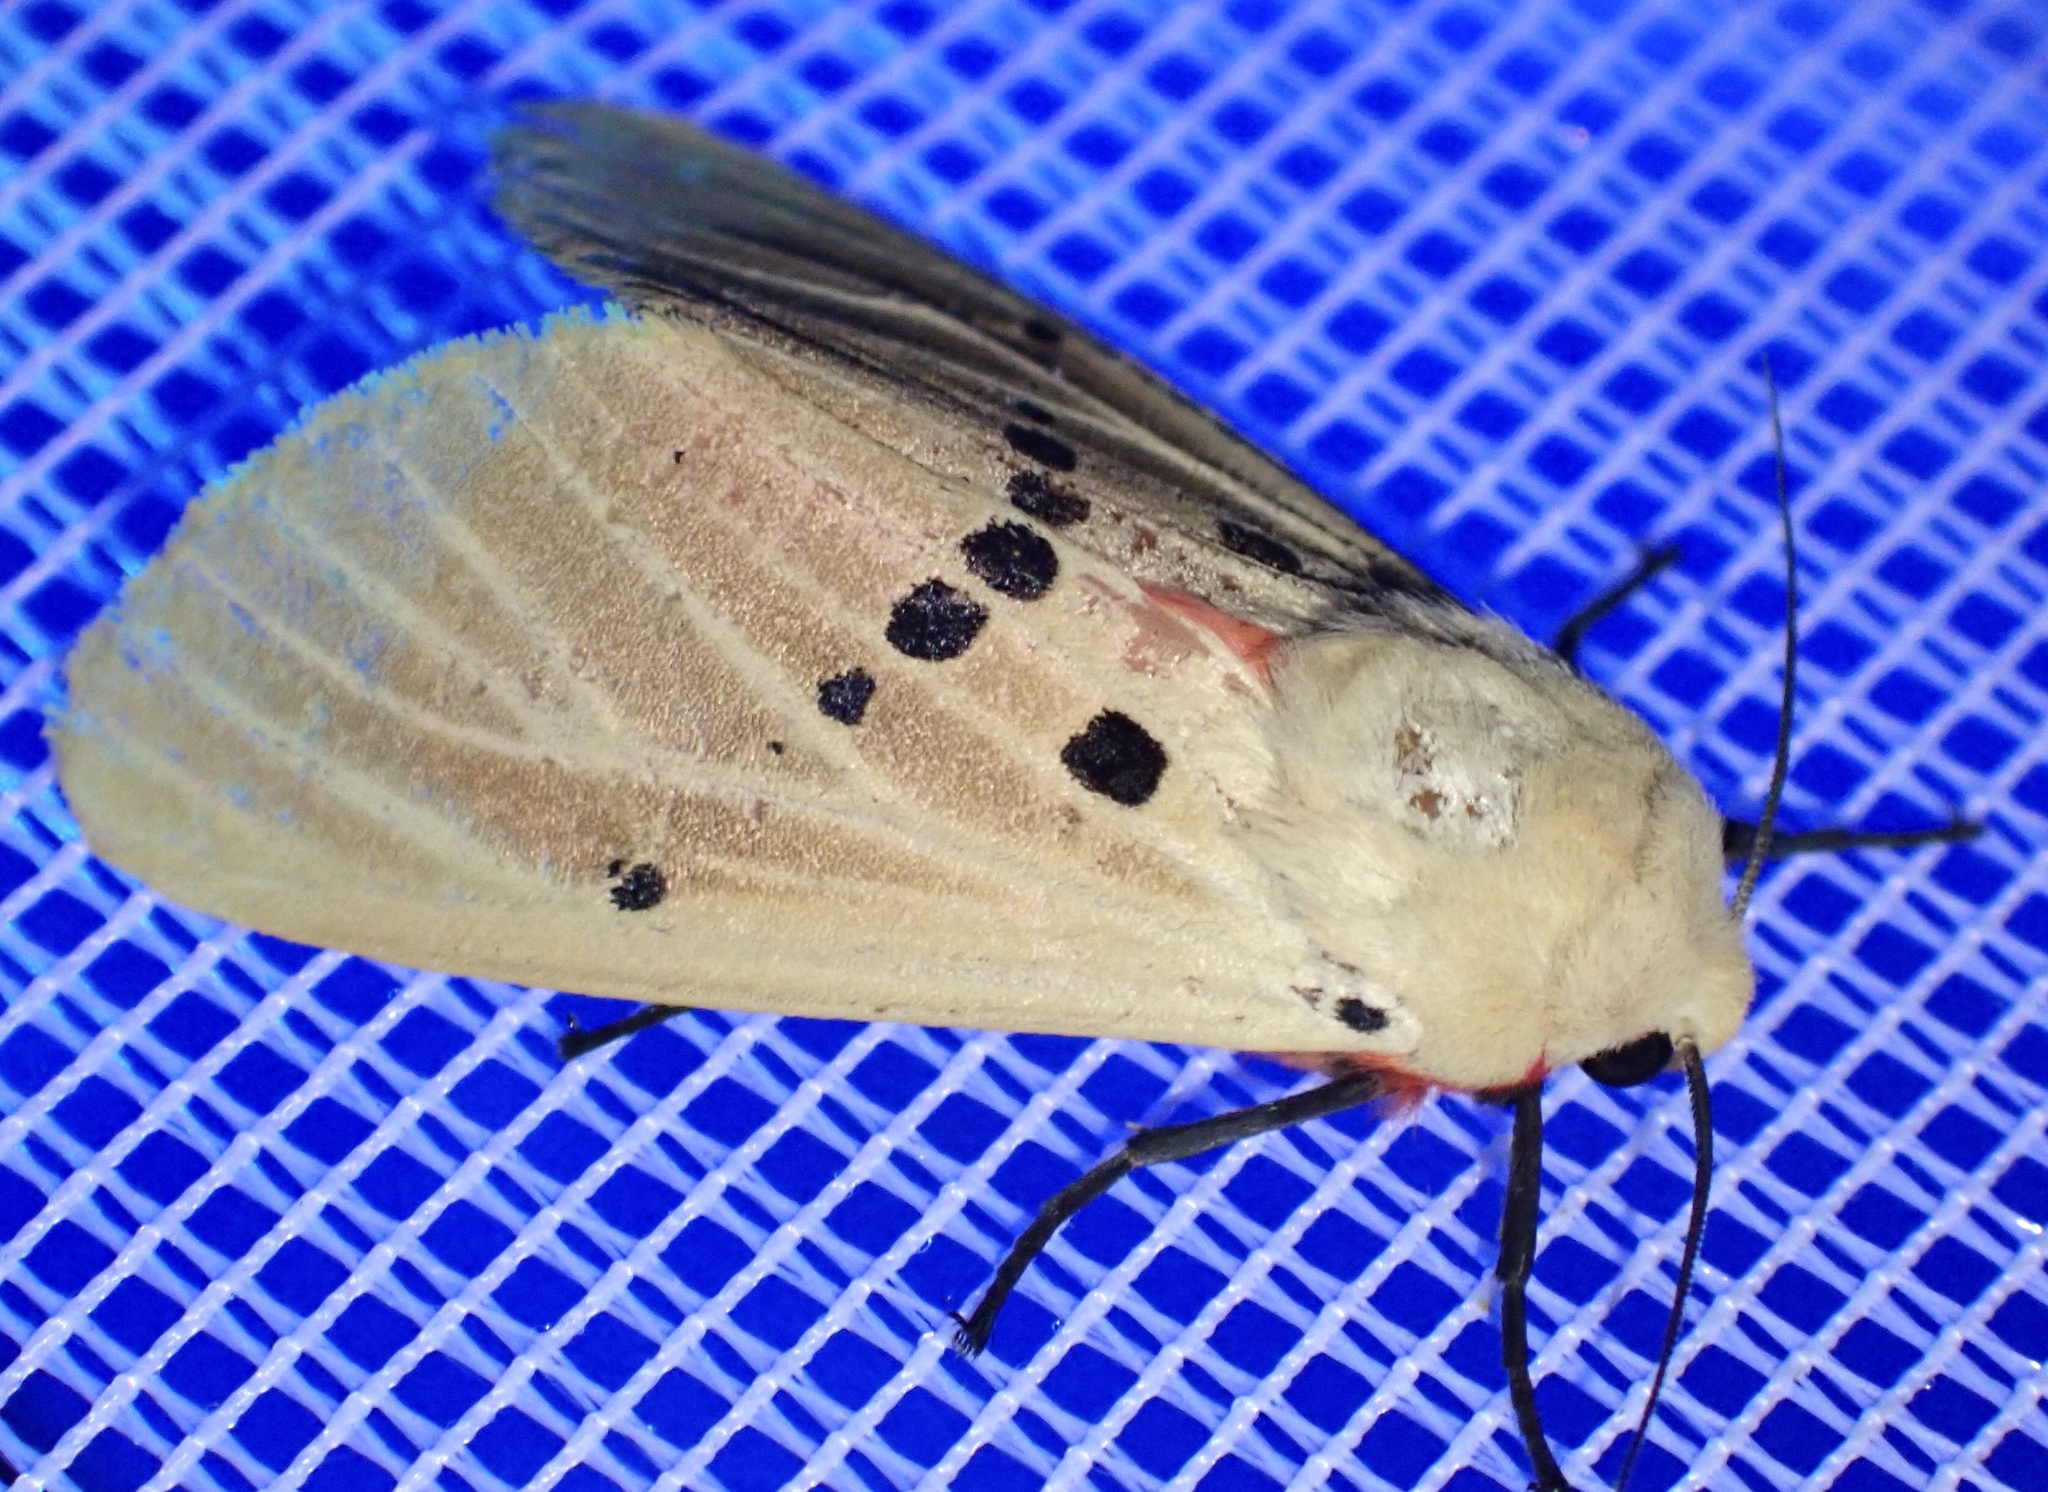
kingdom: Animalia
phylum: Arthropoda
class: Insecta
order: Lepidoptera
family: Erebidae
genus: Nicetosoma
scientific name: Nicetosoma
